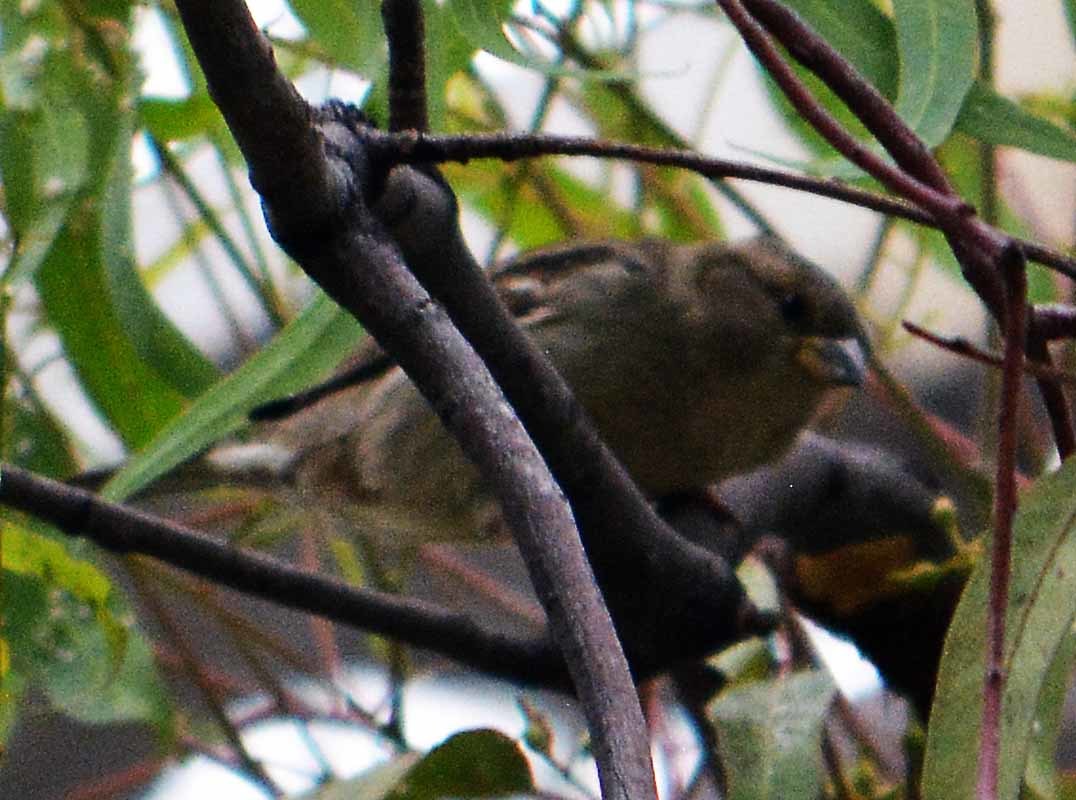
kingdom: Animalia
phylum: Chordata
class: Aves
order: Passeriformes
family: Passeridae
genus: Passer
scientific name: Passer domesticus
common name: House sparrow
